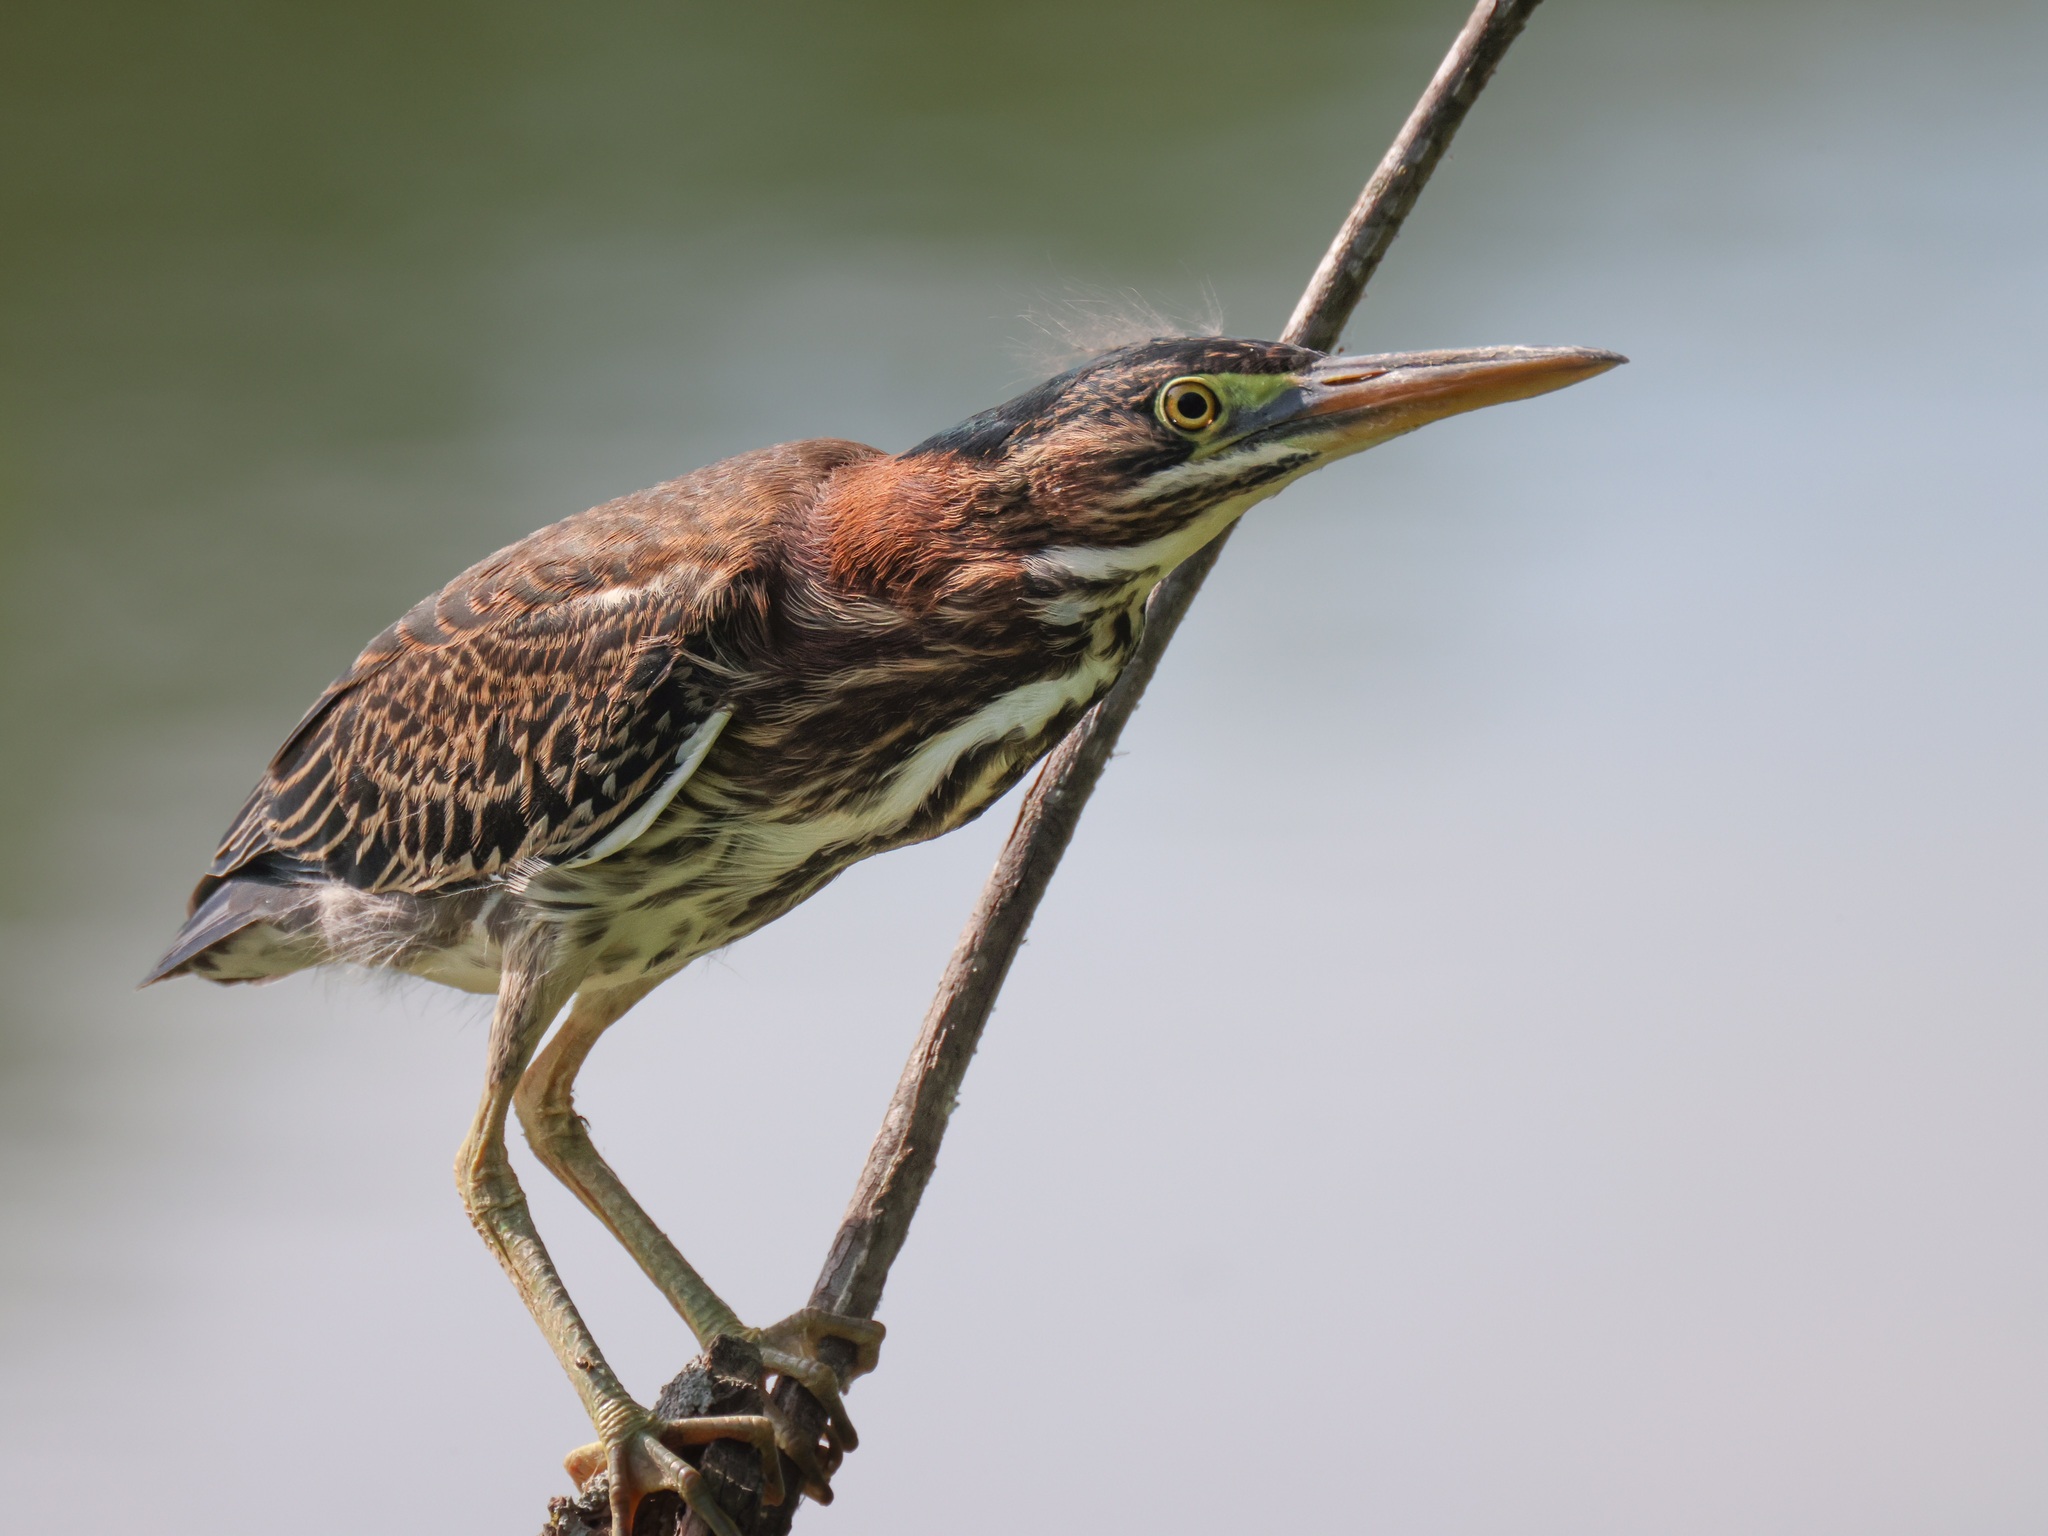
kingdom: Animalia
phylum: Chordata
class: Aves
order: Pelecaniformes
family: Ardeidae
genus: Butorides
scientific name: Butorides virescens
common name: Green heron
